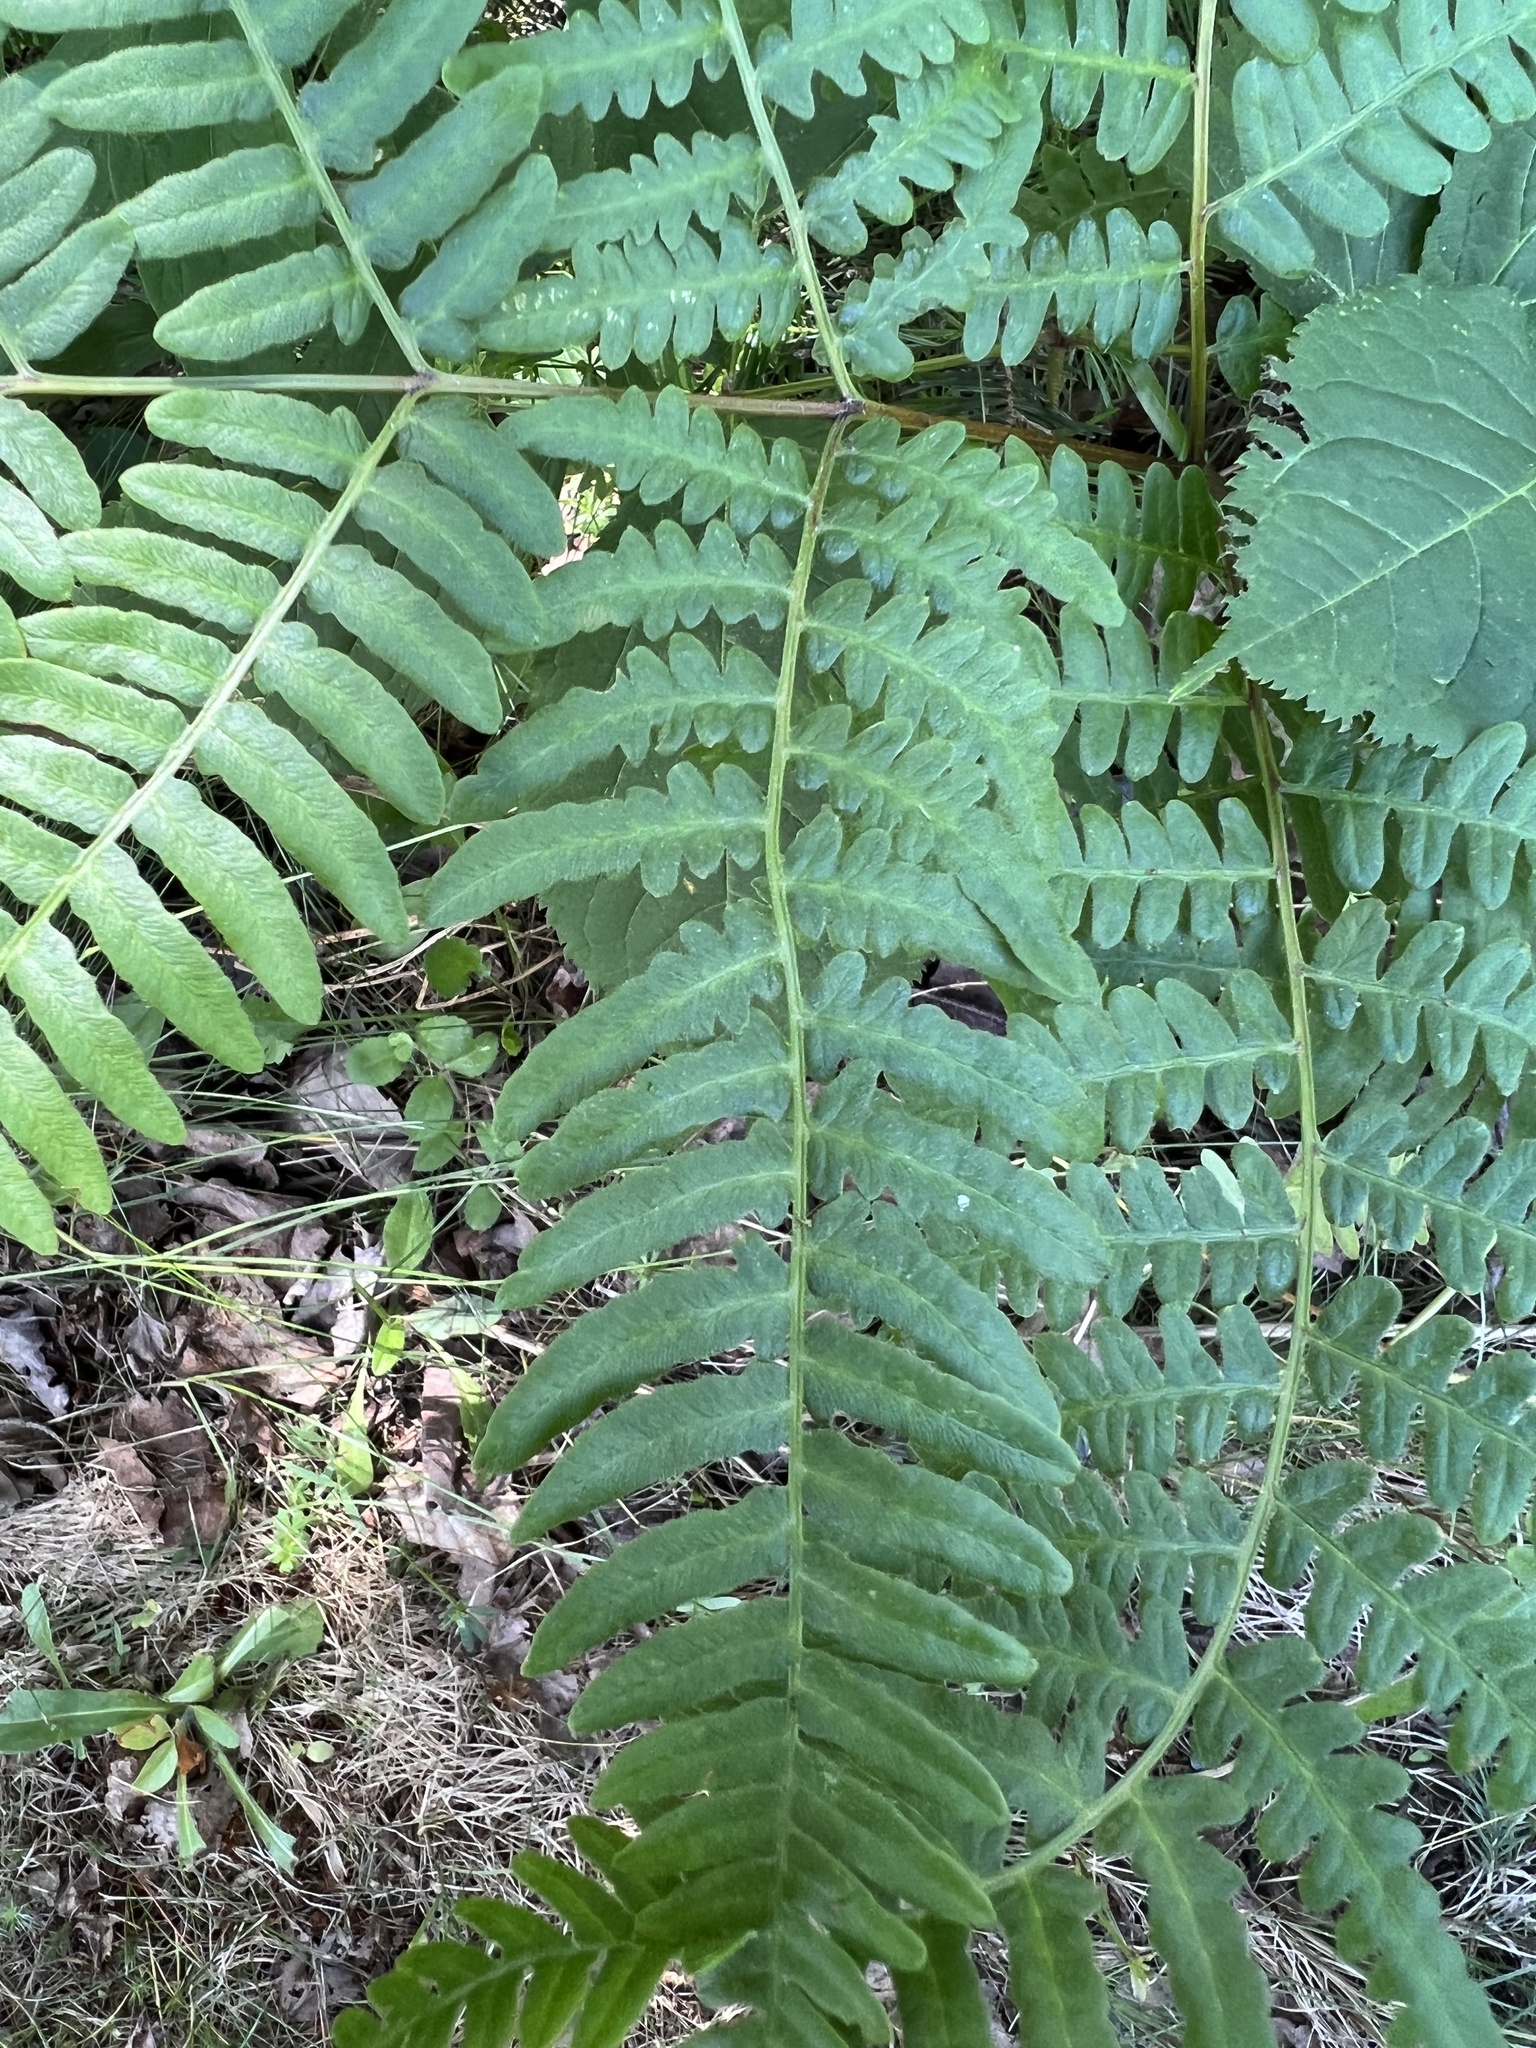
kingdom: Plantae
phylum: Tracheophyta
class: Polypodiopsida
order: Polypodiales
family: Dennstaedtiaceae
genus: Pteridium
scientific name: Pteridium aquilinum
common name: Bracken
